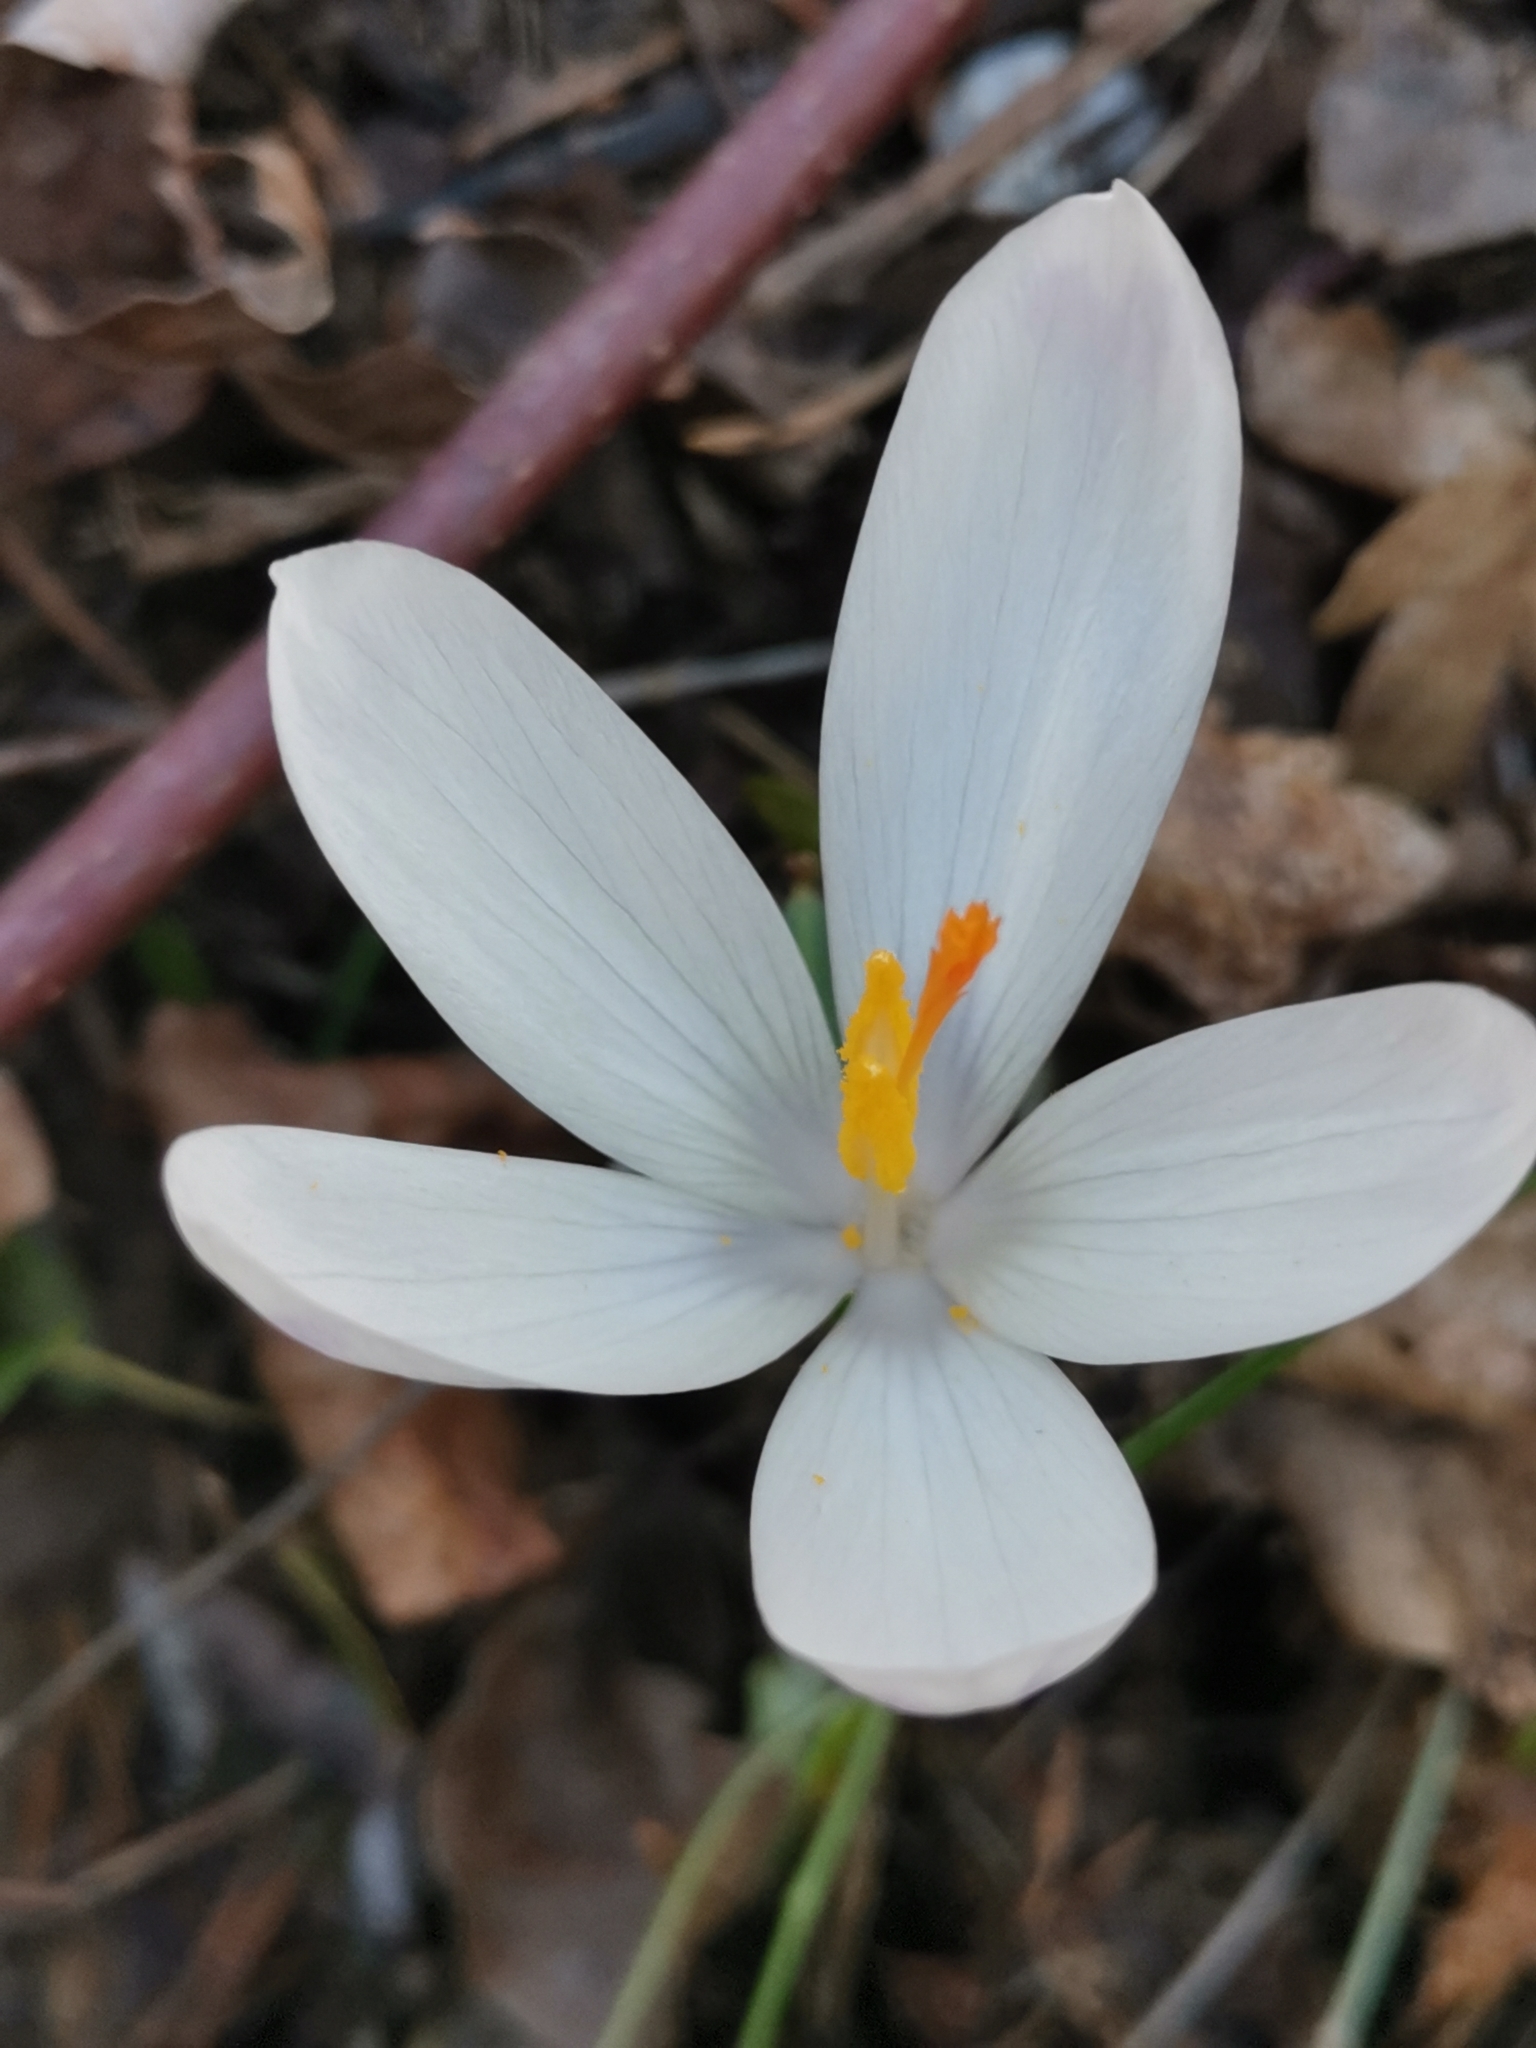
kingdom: Plantae
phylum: Tracheophyta
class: Liliopsida
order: Asparagales
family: Iridaceae
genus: Crocus
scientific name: Crocus heuffelianus
